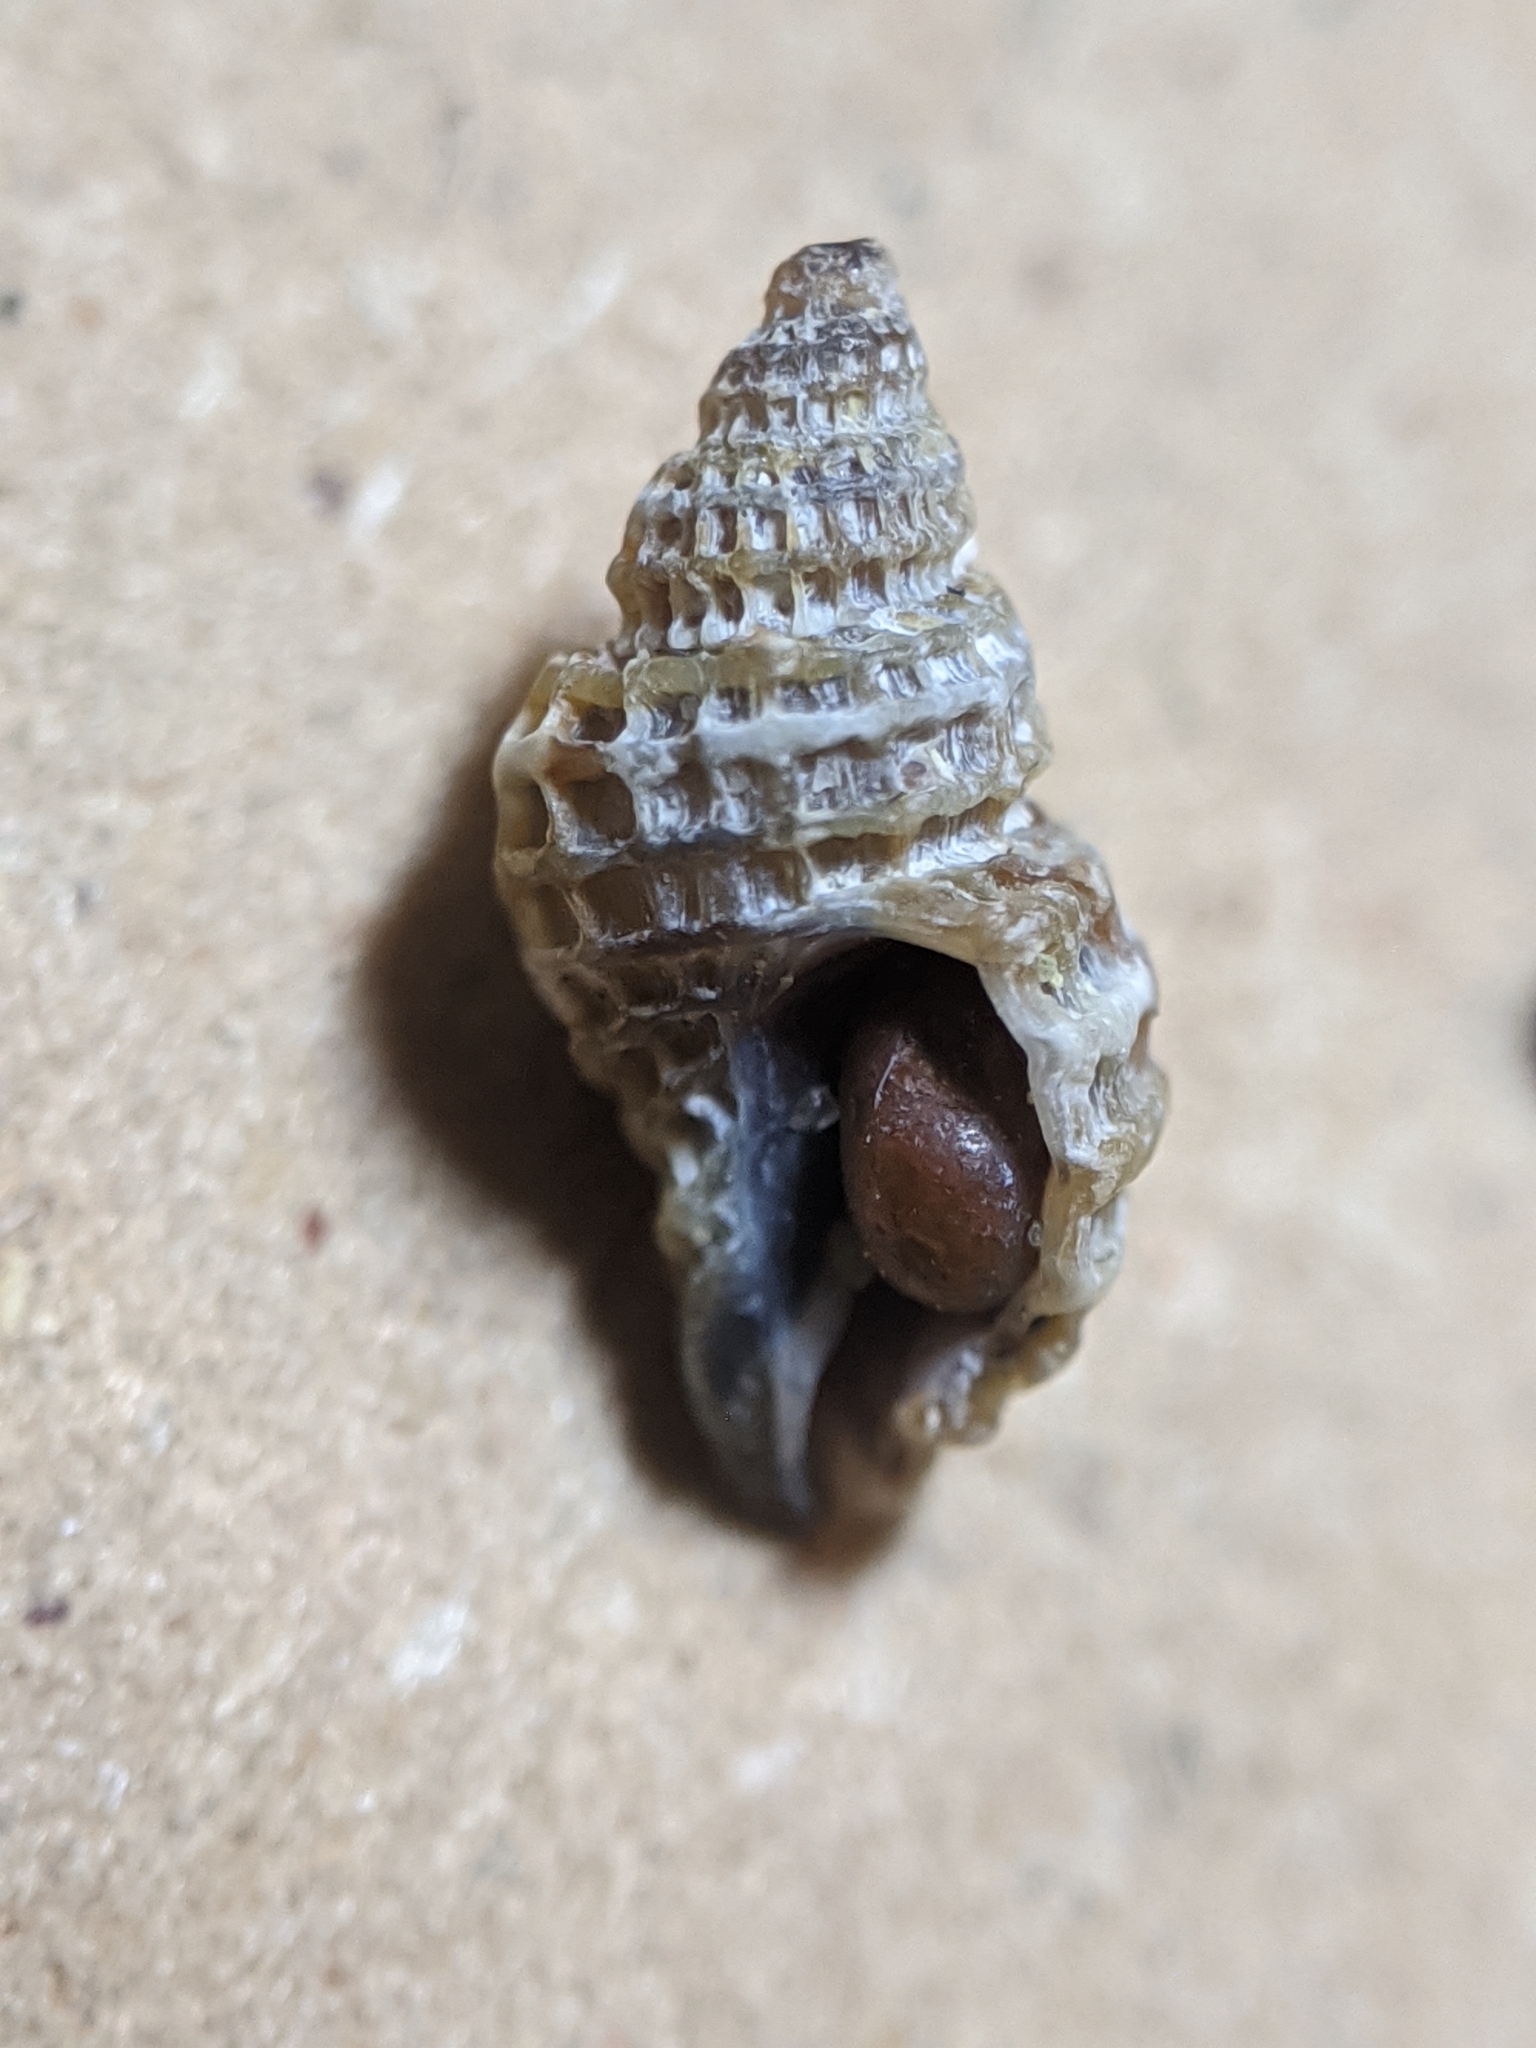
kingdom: Animalia
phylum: Mollusca
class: Gastropoda
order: Neogastropoda
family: Muricidae
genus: Paciocinebrina
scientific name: Paciocinebrina interfossa
